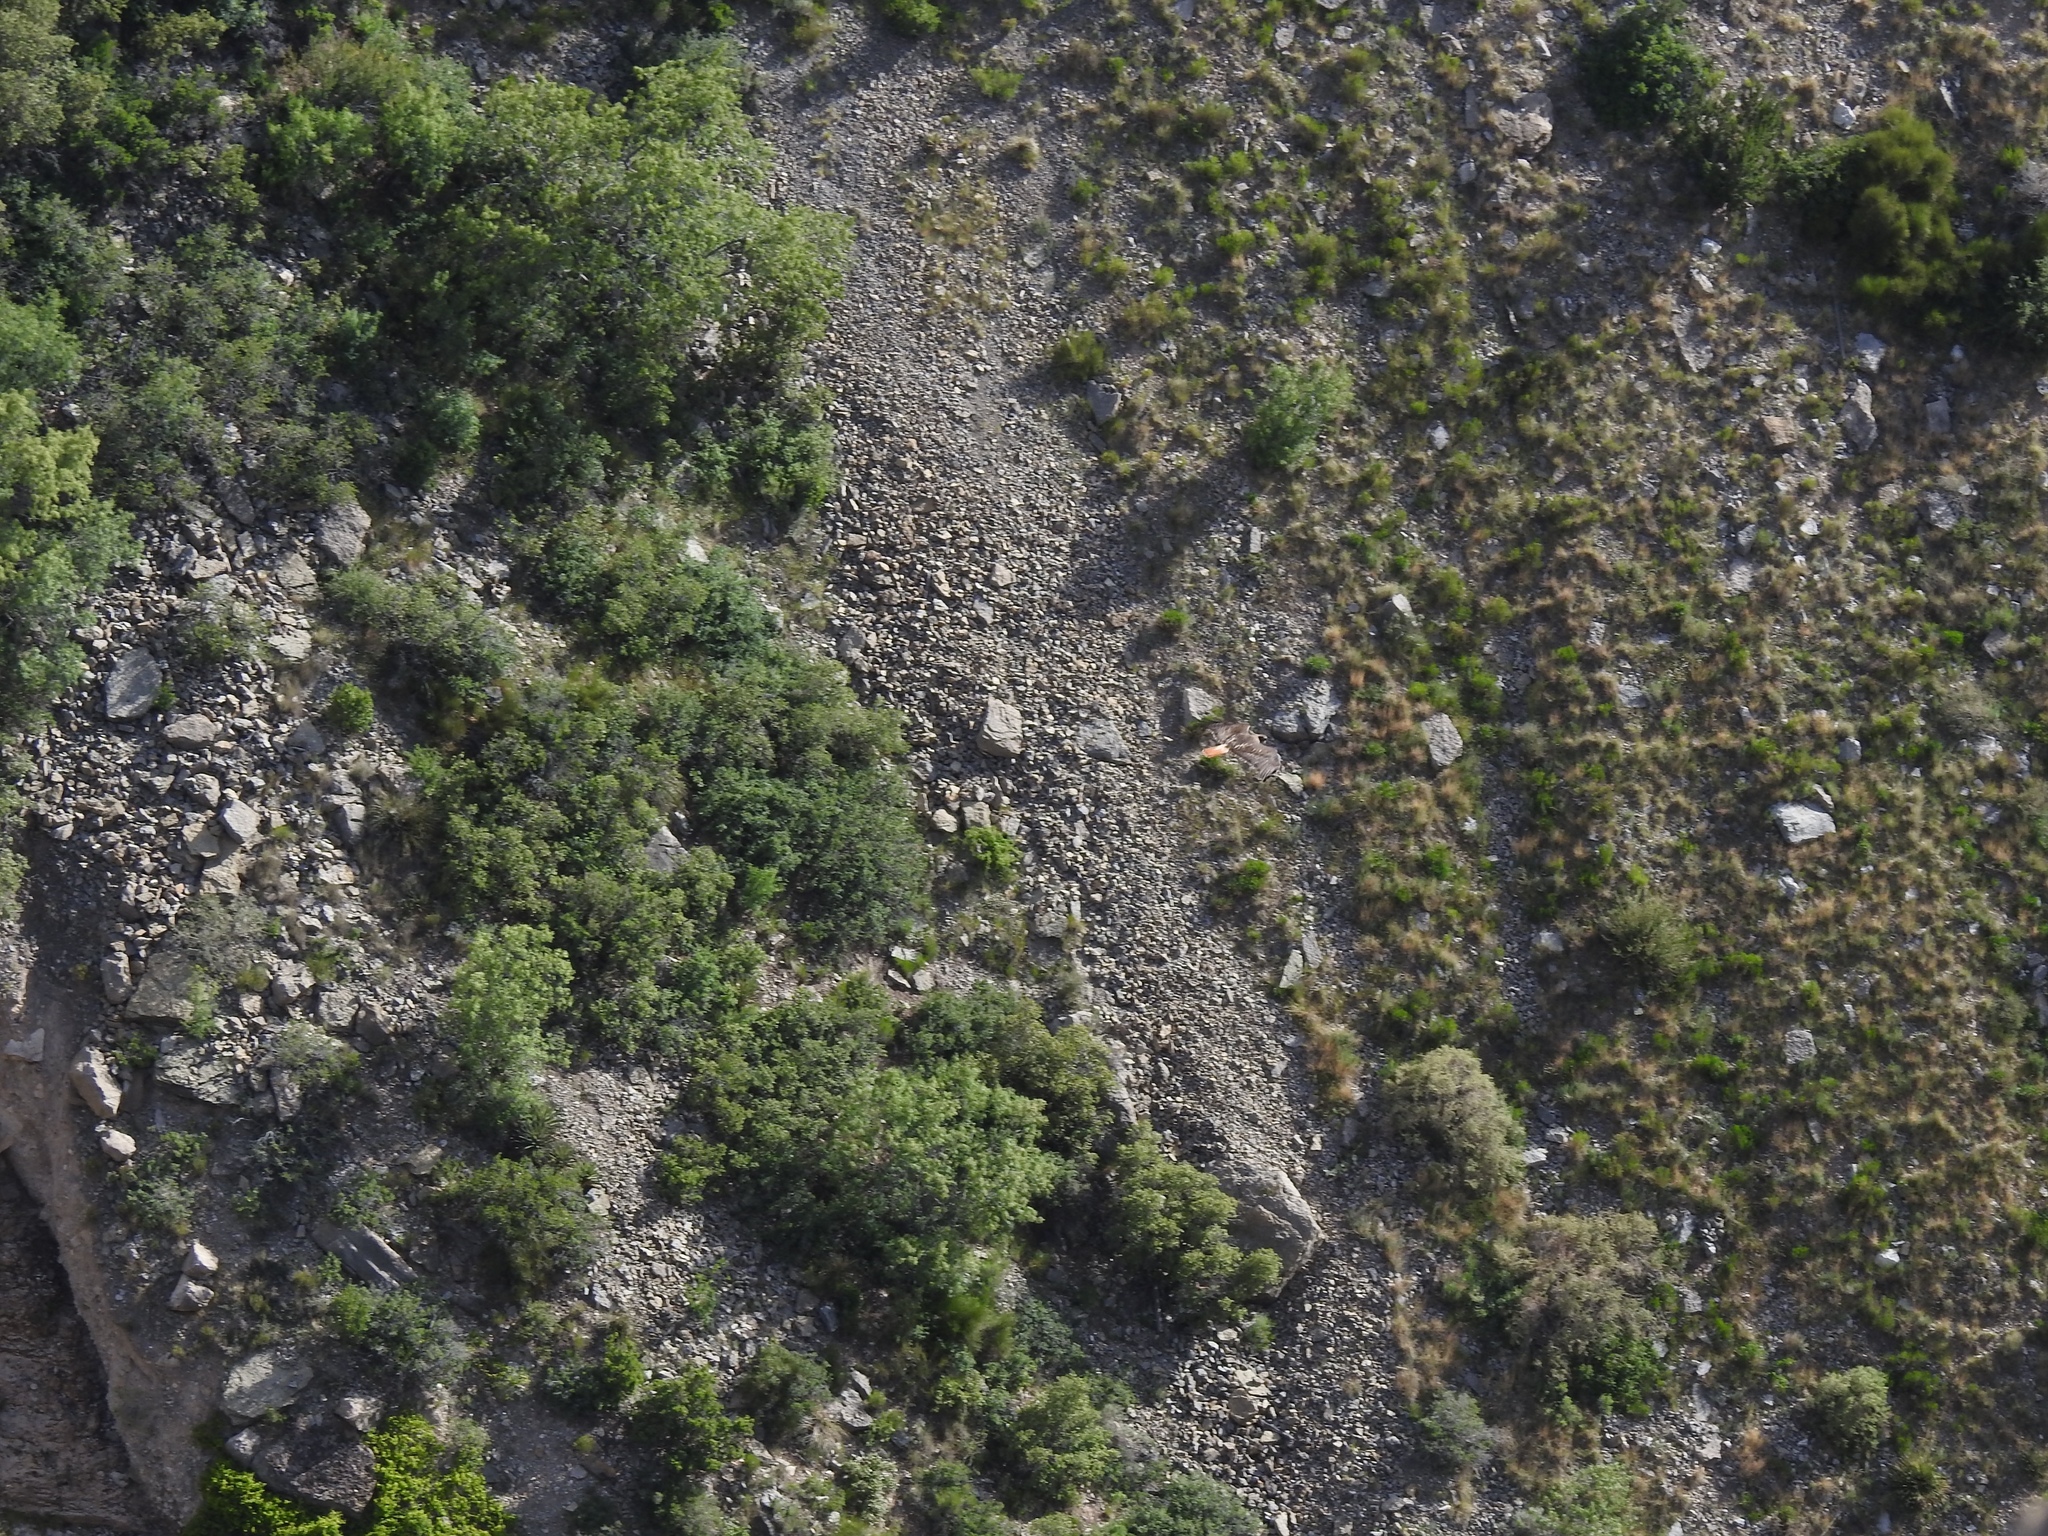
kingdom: Animalia
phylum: Chordata
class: Aves
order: Accipitriformes
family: Accipitridae
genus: Buteo
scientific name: Buteo jamaicensis
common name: Red-tailed hawk
